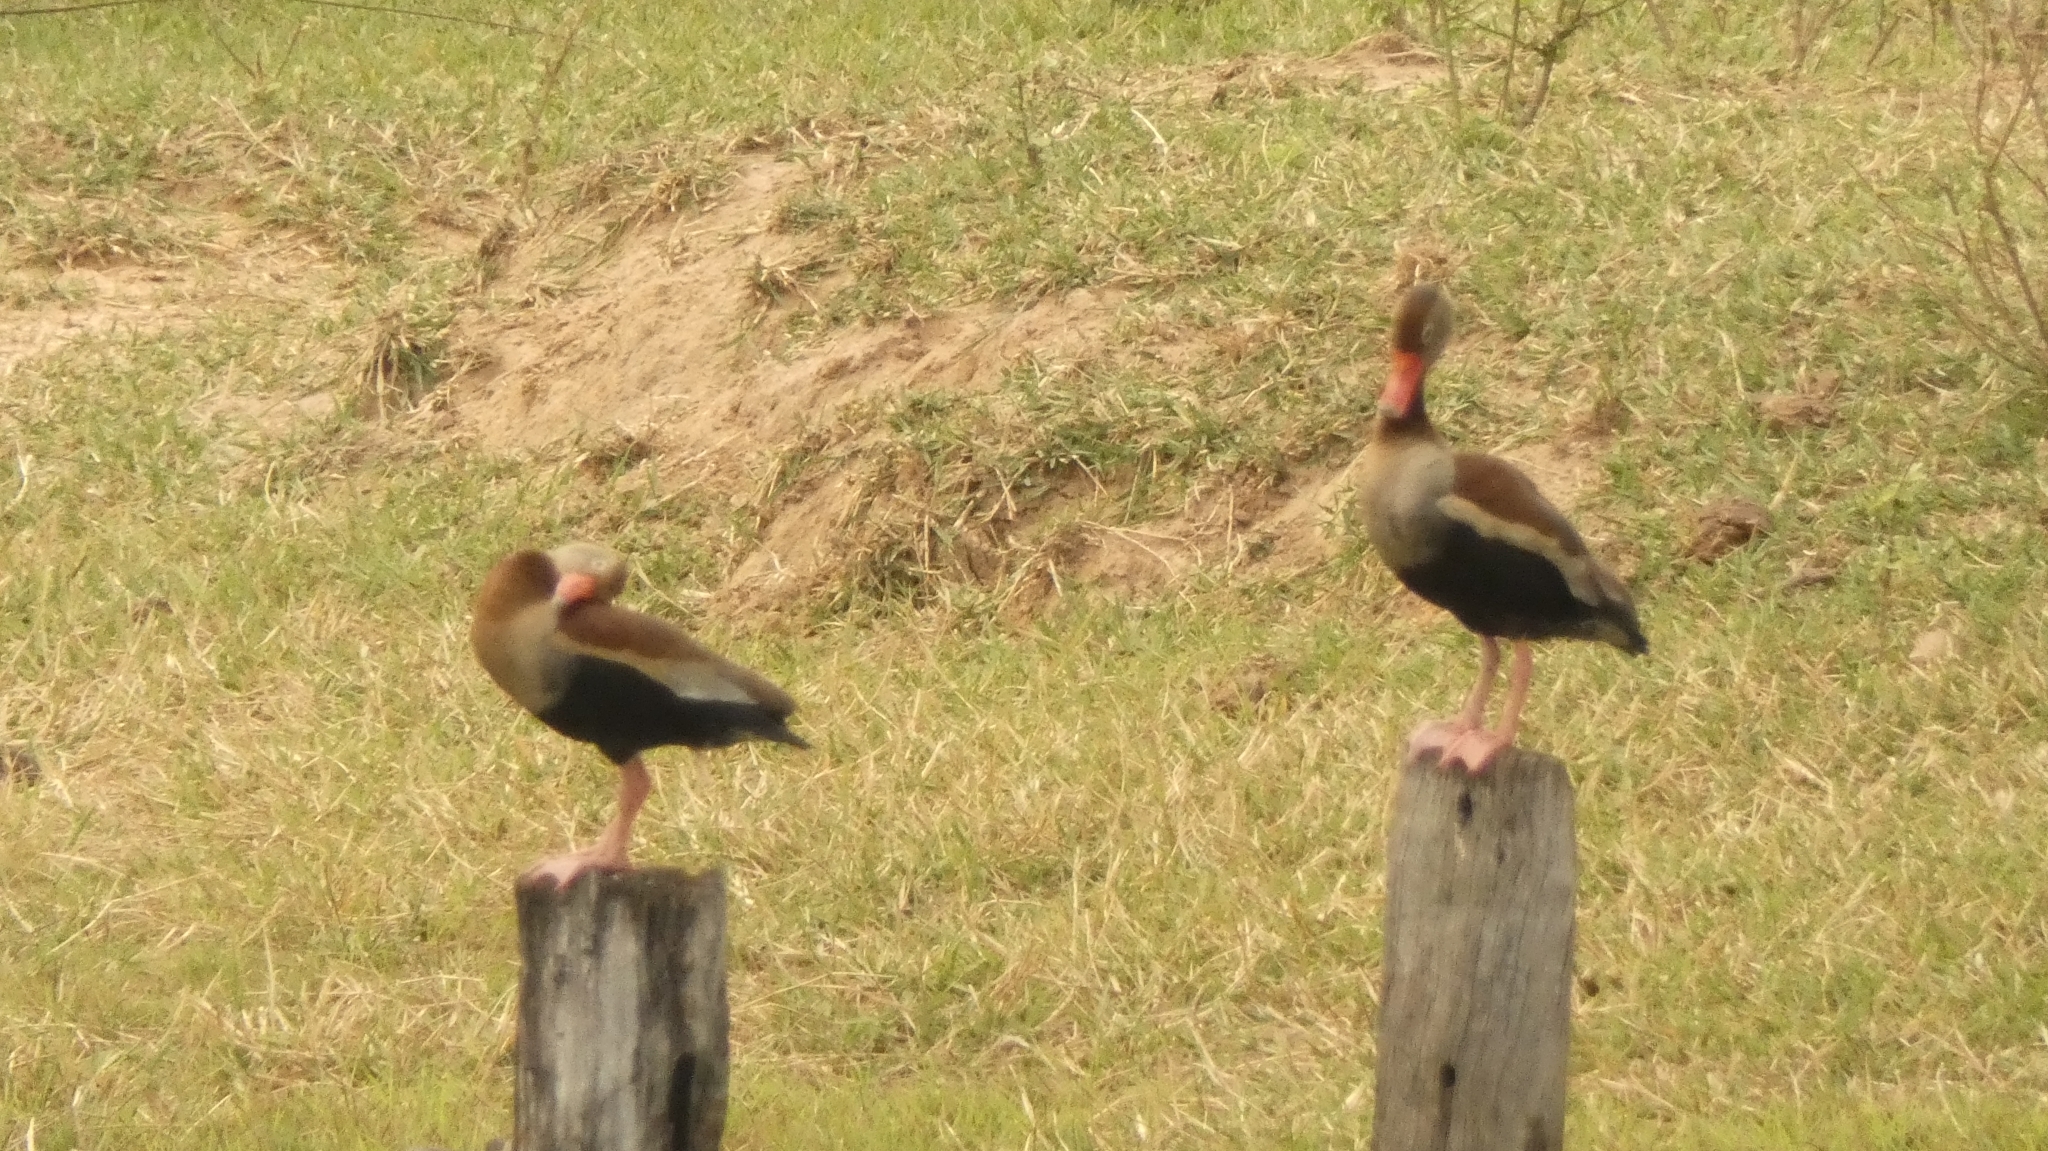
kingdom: Animalia
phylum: Chordata
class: Aves
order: Anseriformes
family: Anatidae
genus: Dendrocygna
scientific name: Dendrocygna autumnalis
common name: Black-bellied whistling duck
